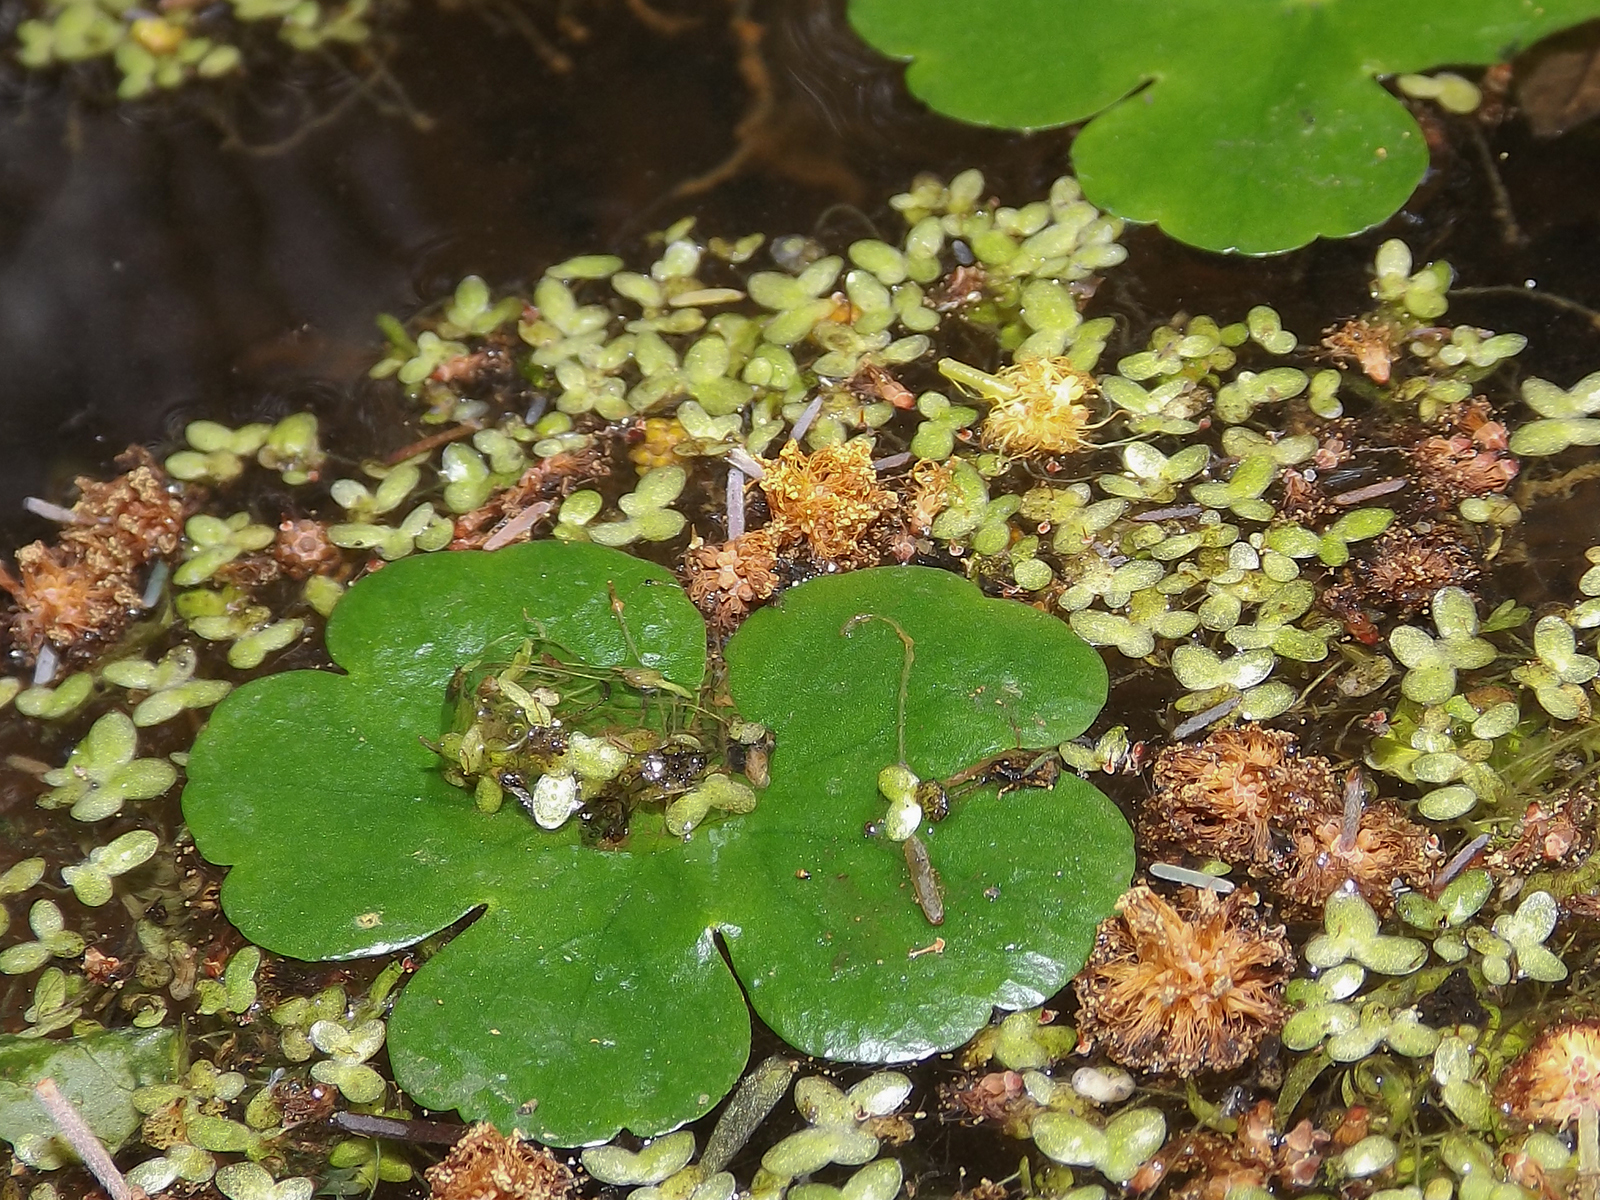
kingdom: Plantae
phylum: Tracheophyta
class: Magnoliopsida
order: Apiales
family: Araliaceae
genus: Hydrocotyle
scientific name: Hydrocotyle ranunculoides
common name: Floating pennywort
